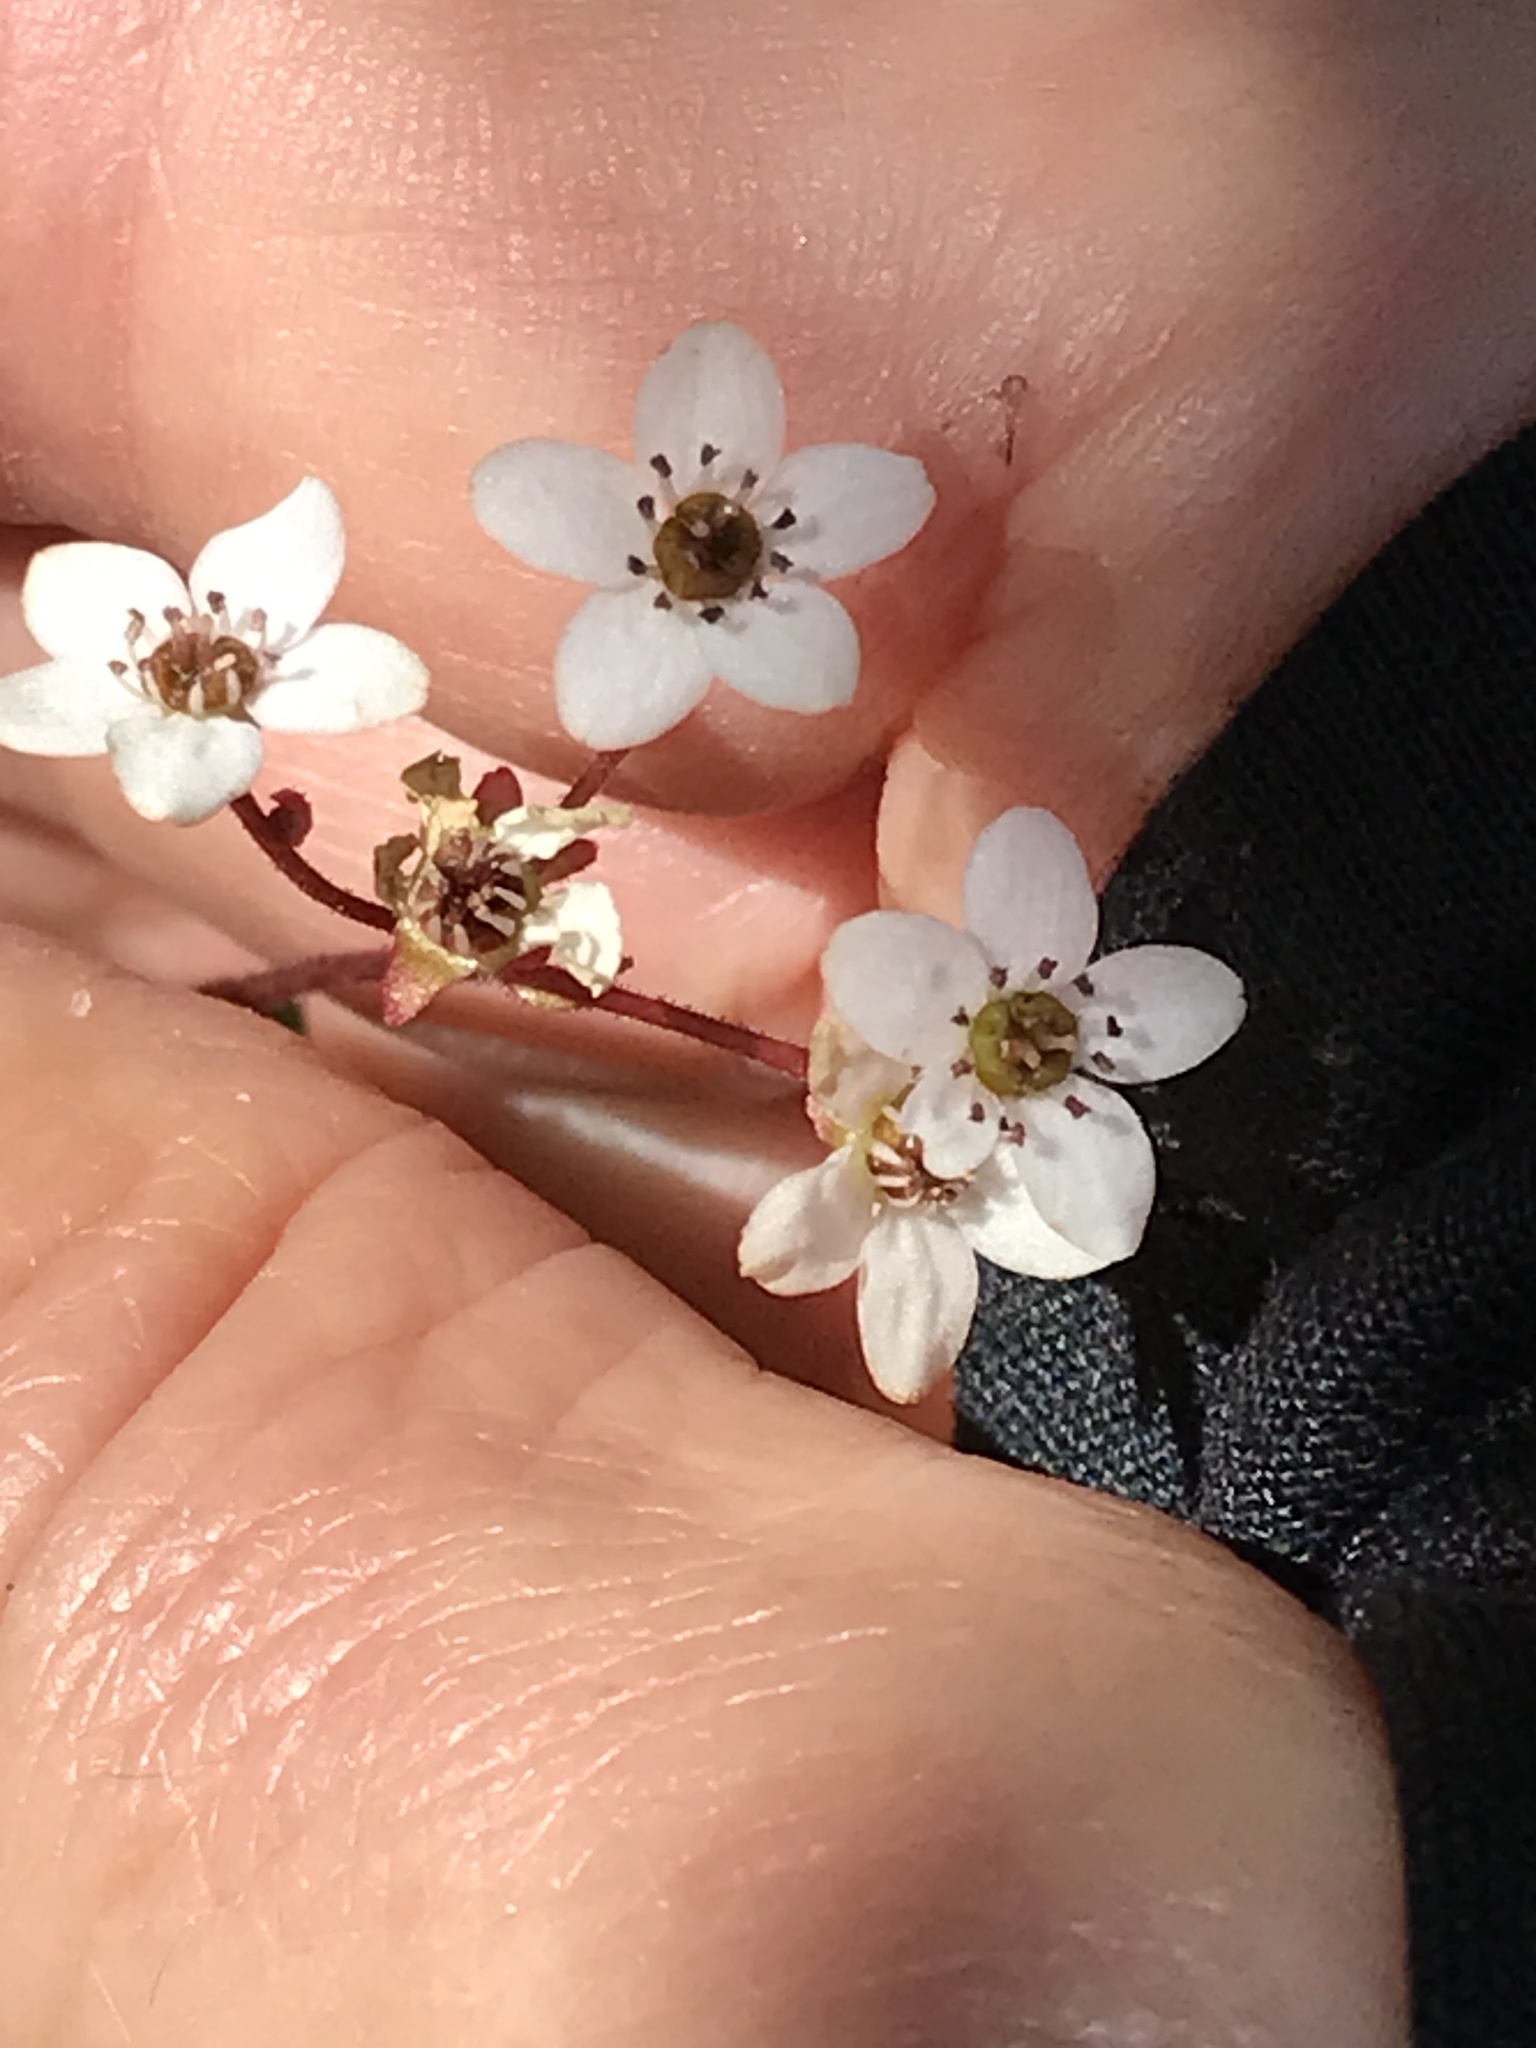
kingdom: Plantae
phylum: Tracheophyta
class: Magnoliopsida
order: Saxifragales
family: Saxifragaceae
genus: Micranthes
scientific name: Micranthes californica
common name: California saxifrage
